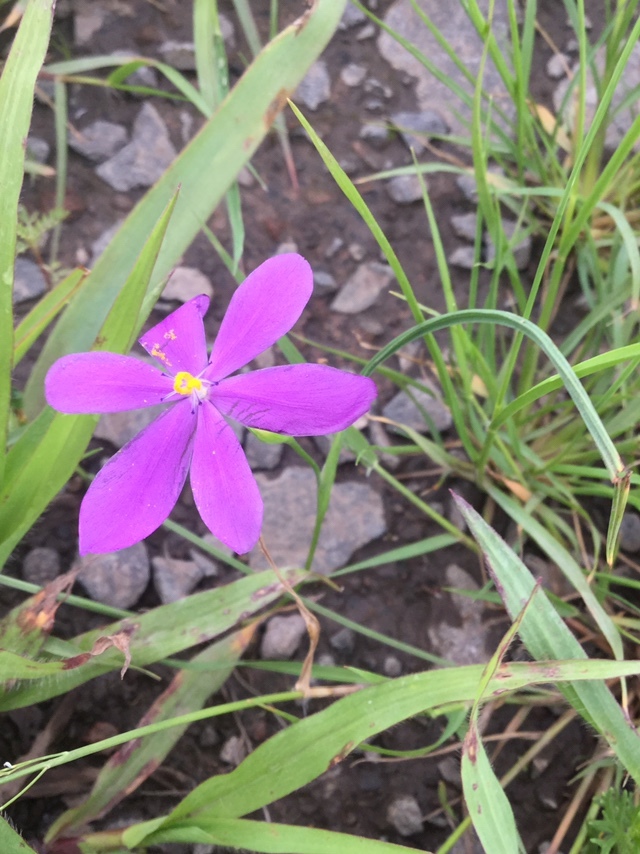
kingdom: Plantae
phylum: Tracheophyta
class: Liliopsida
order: Asparagales
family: Iridaceae
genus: Nemastylis
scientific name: Nemastylis tenuis
